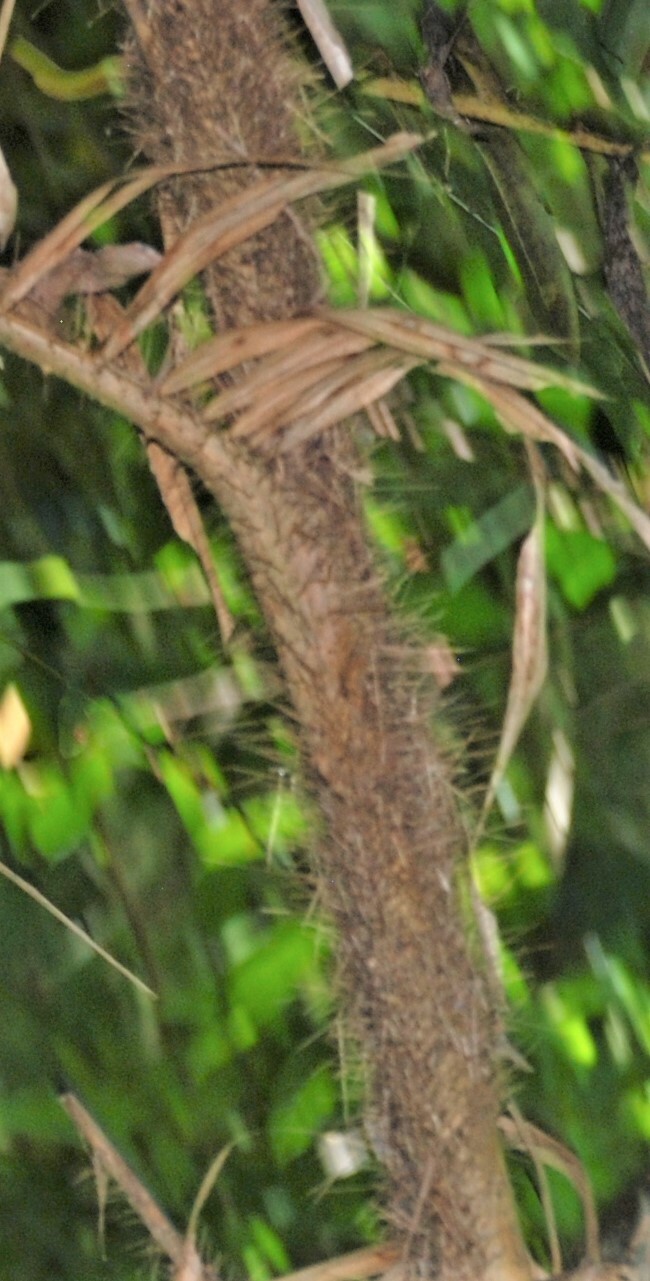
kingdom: Plantae
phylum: Tracheophyta
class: Liliopsida
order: Arecales
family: Arecaceae
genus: Calamus
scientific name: Calamus radicalis
